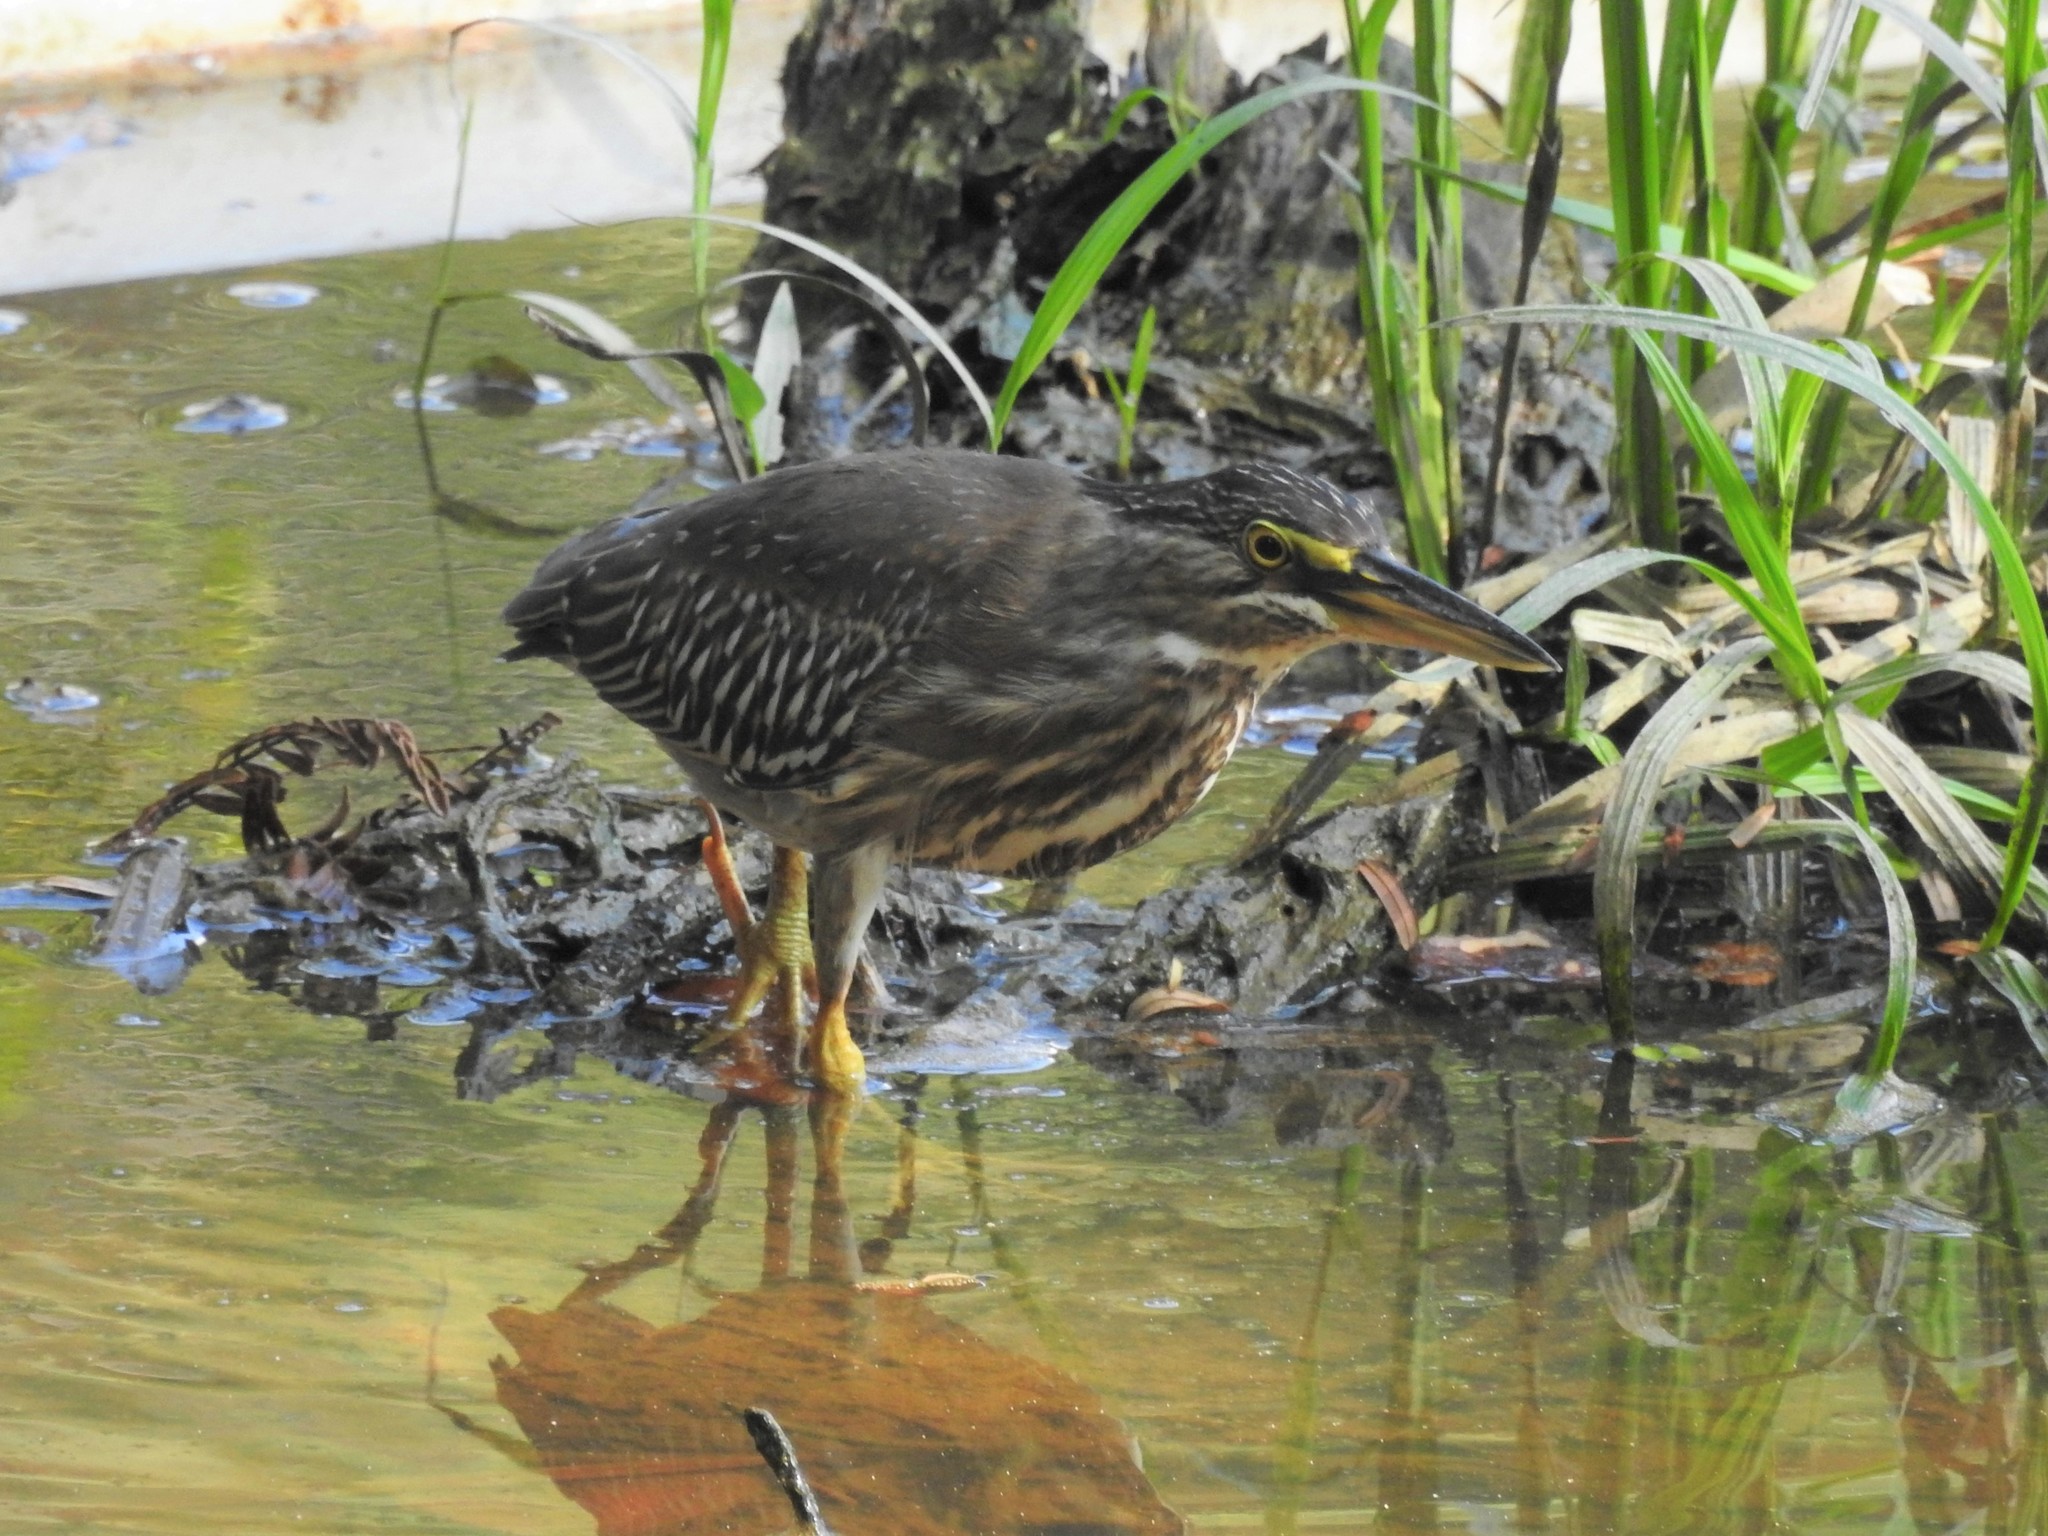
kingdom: Animalia
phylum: Chordata
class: Aves
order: Pelecaniformes
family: Ardeidae
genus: Butorides
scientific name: Butorides striata
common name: Striated heron
